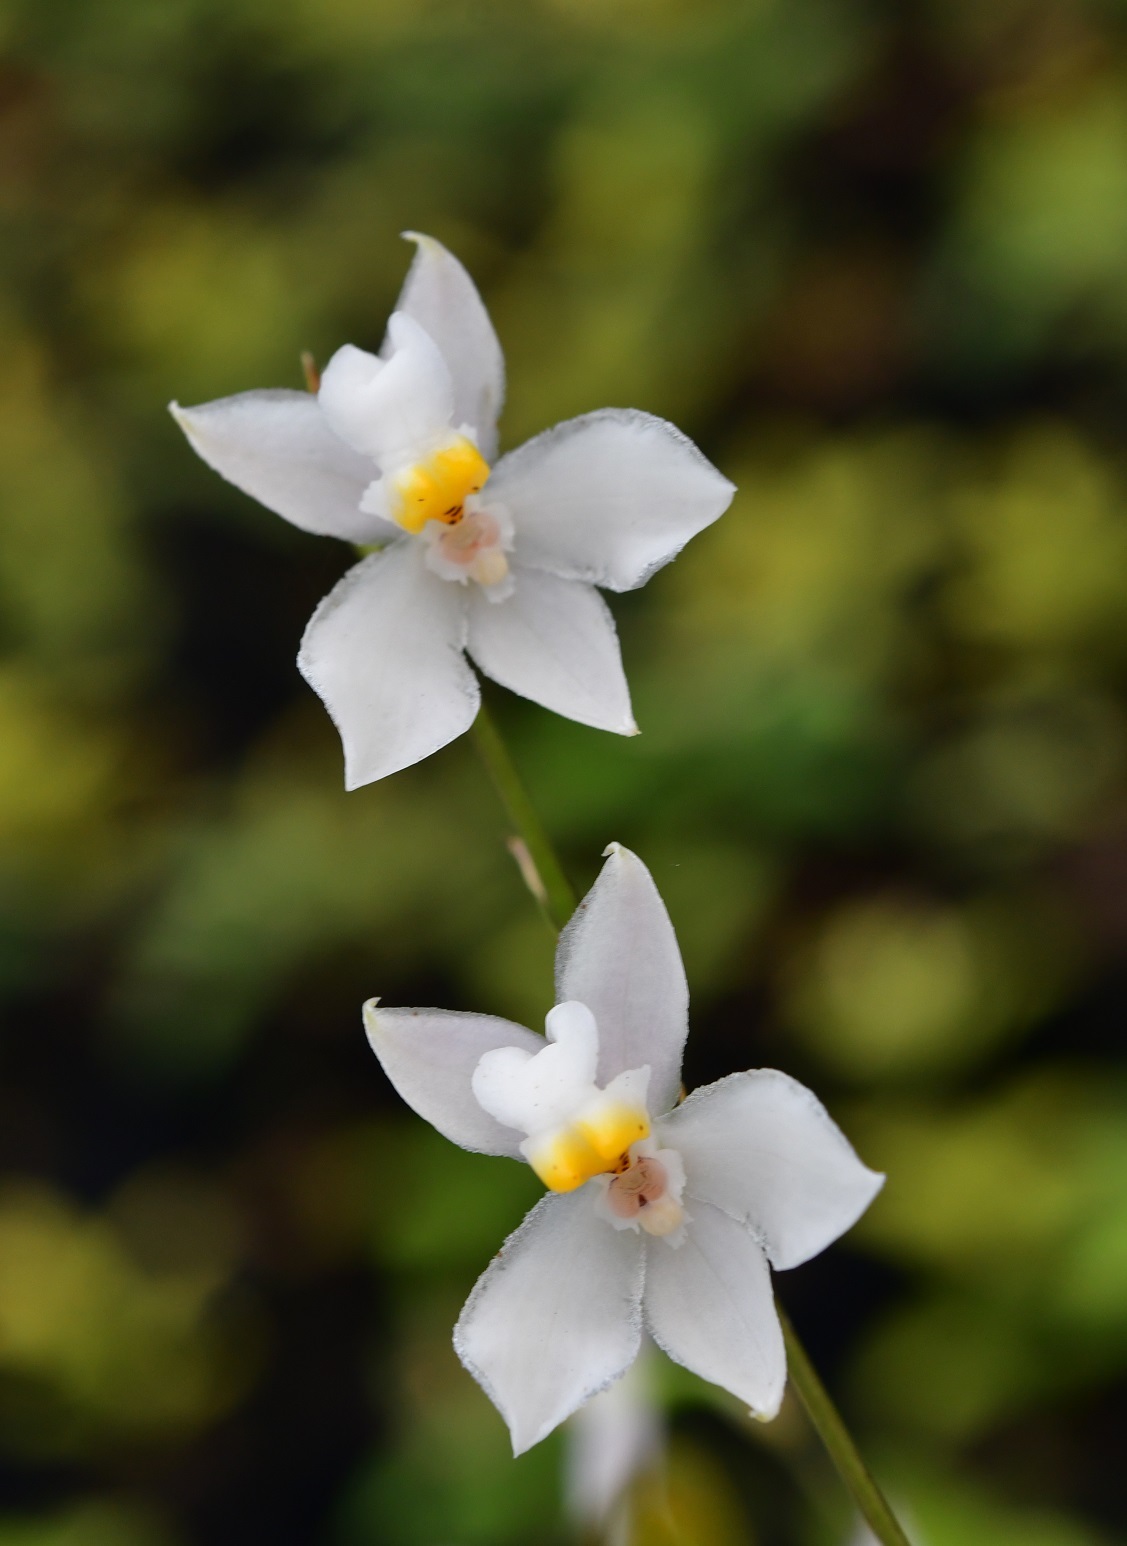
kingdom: Plantae
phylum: Tracheophyta
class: Liliopsida
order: Asparagales
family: Orchidaceae
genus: Cuitlauzina
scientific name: Cuitlauzina pulchella
